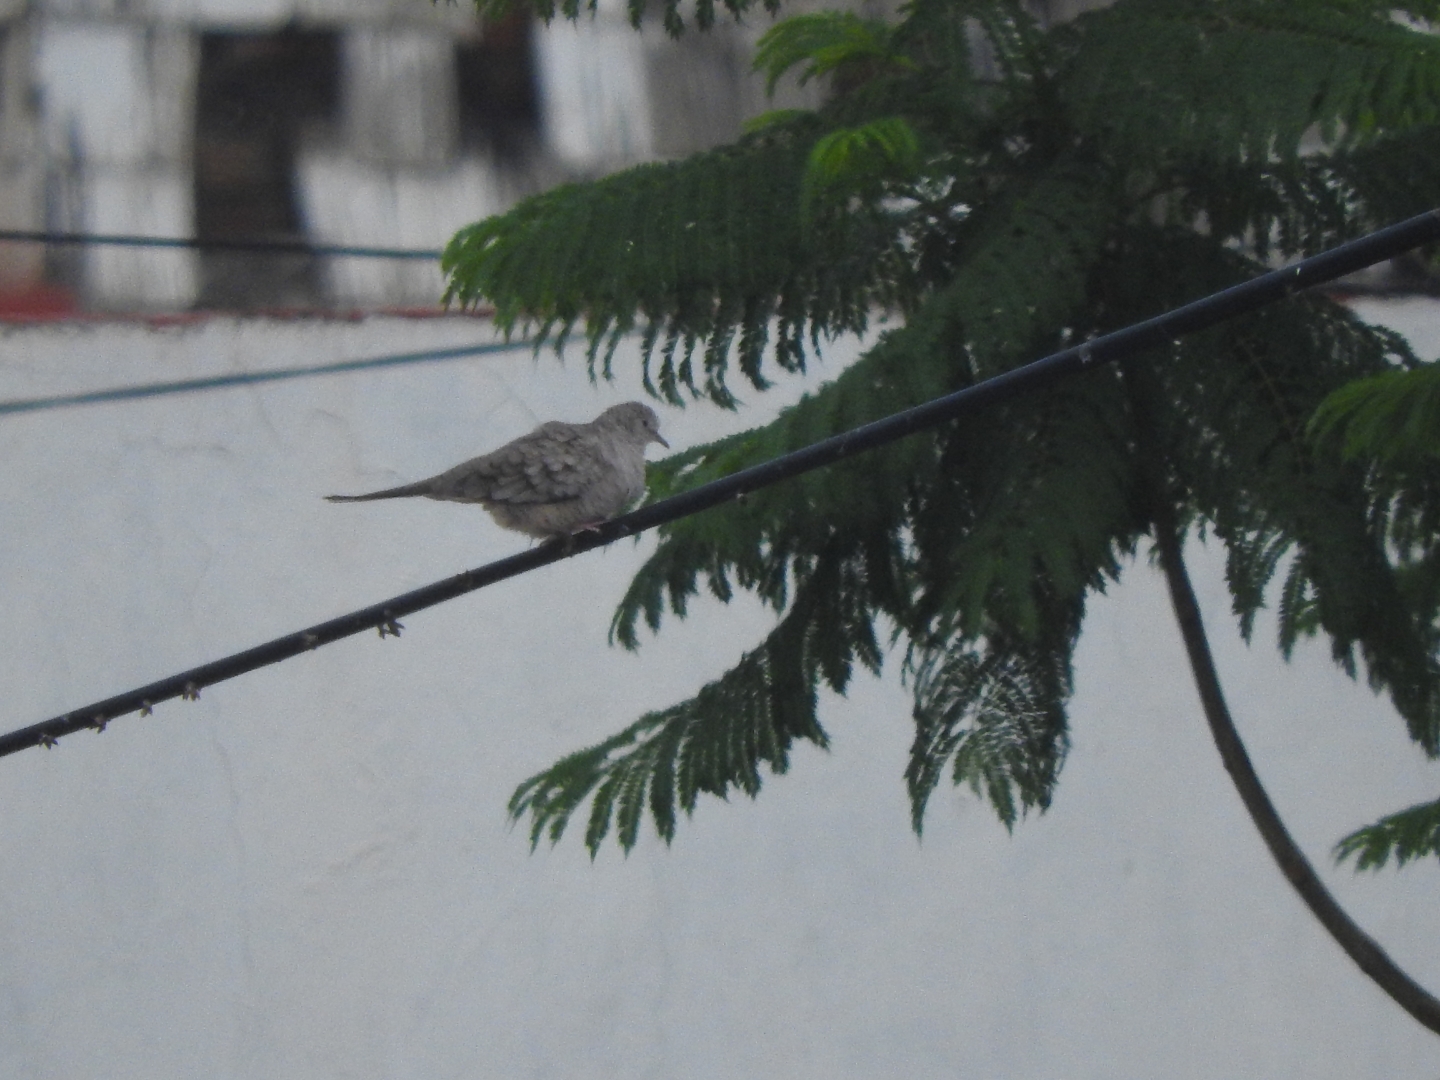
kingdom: Animalia
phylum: Chordata
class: Aves
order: Columbiformes
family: Columbidae
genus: Columbina
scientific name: Columbina inca
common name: Inca dove
